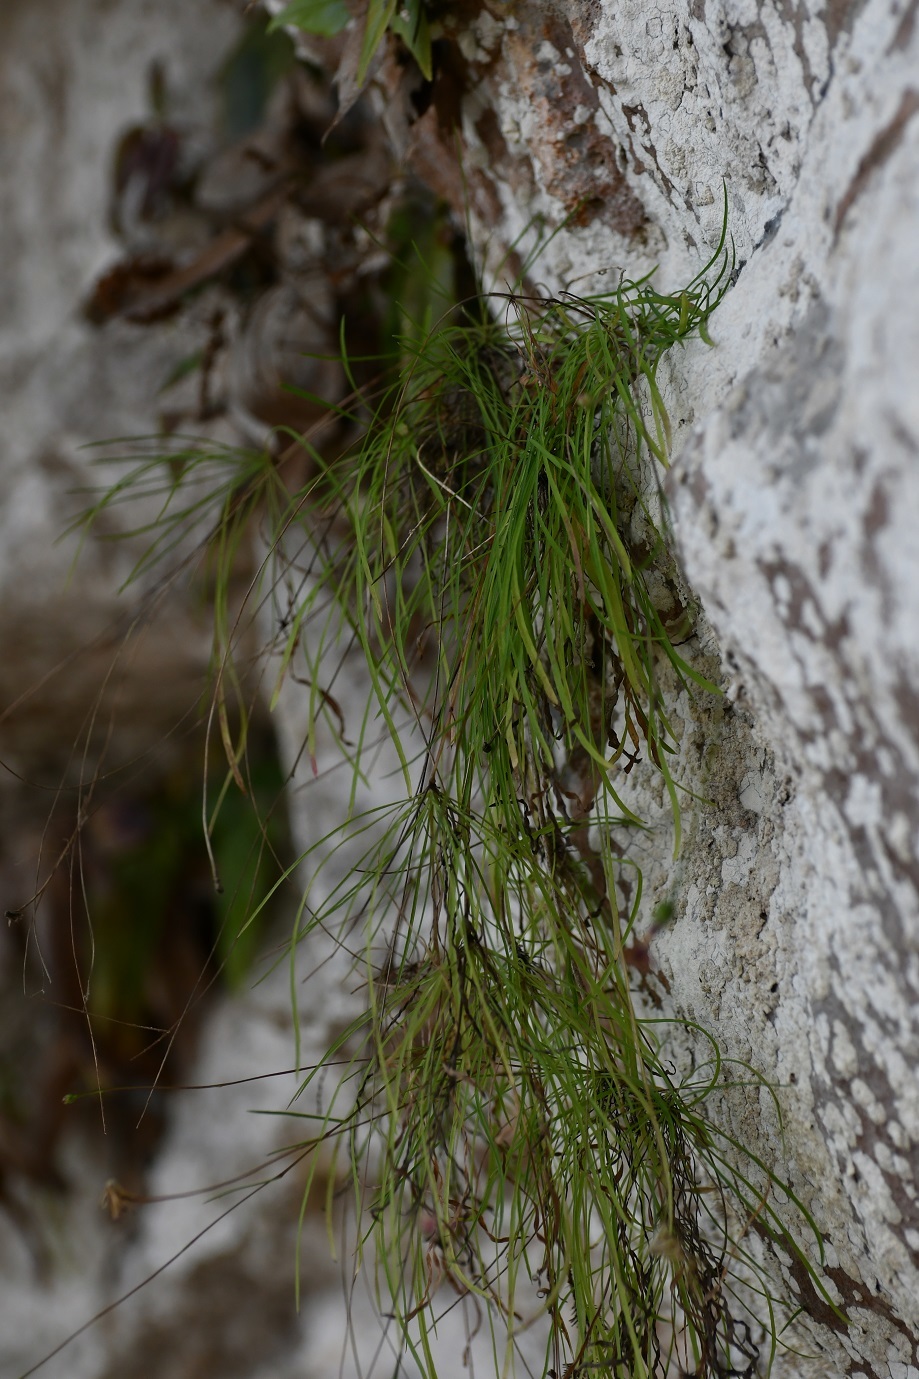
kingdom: Plantae
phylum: Tracheophyta
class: Magnoliopsida
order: Asterales
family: Asteraceae
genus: Pinaropappus
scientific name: Pinaropappus spathulatus
